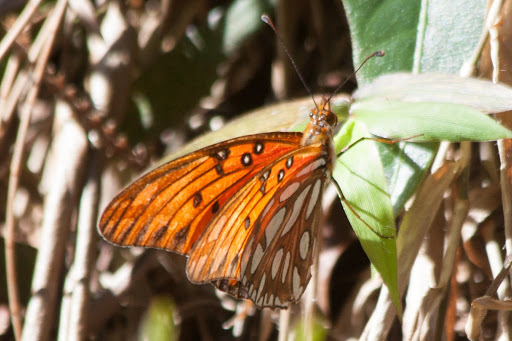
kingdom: Animalia
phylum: Arthropoda
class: Insecta
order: Lepidoptera
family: Nymphalidae
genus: Dione
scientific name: Dione vanillae
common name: Gulf fritillary
